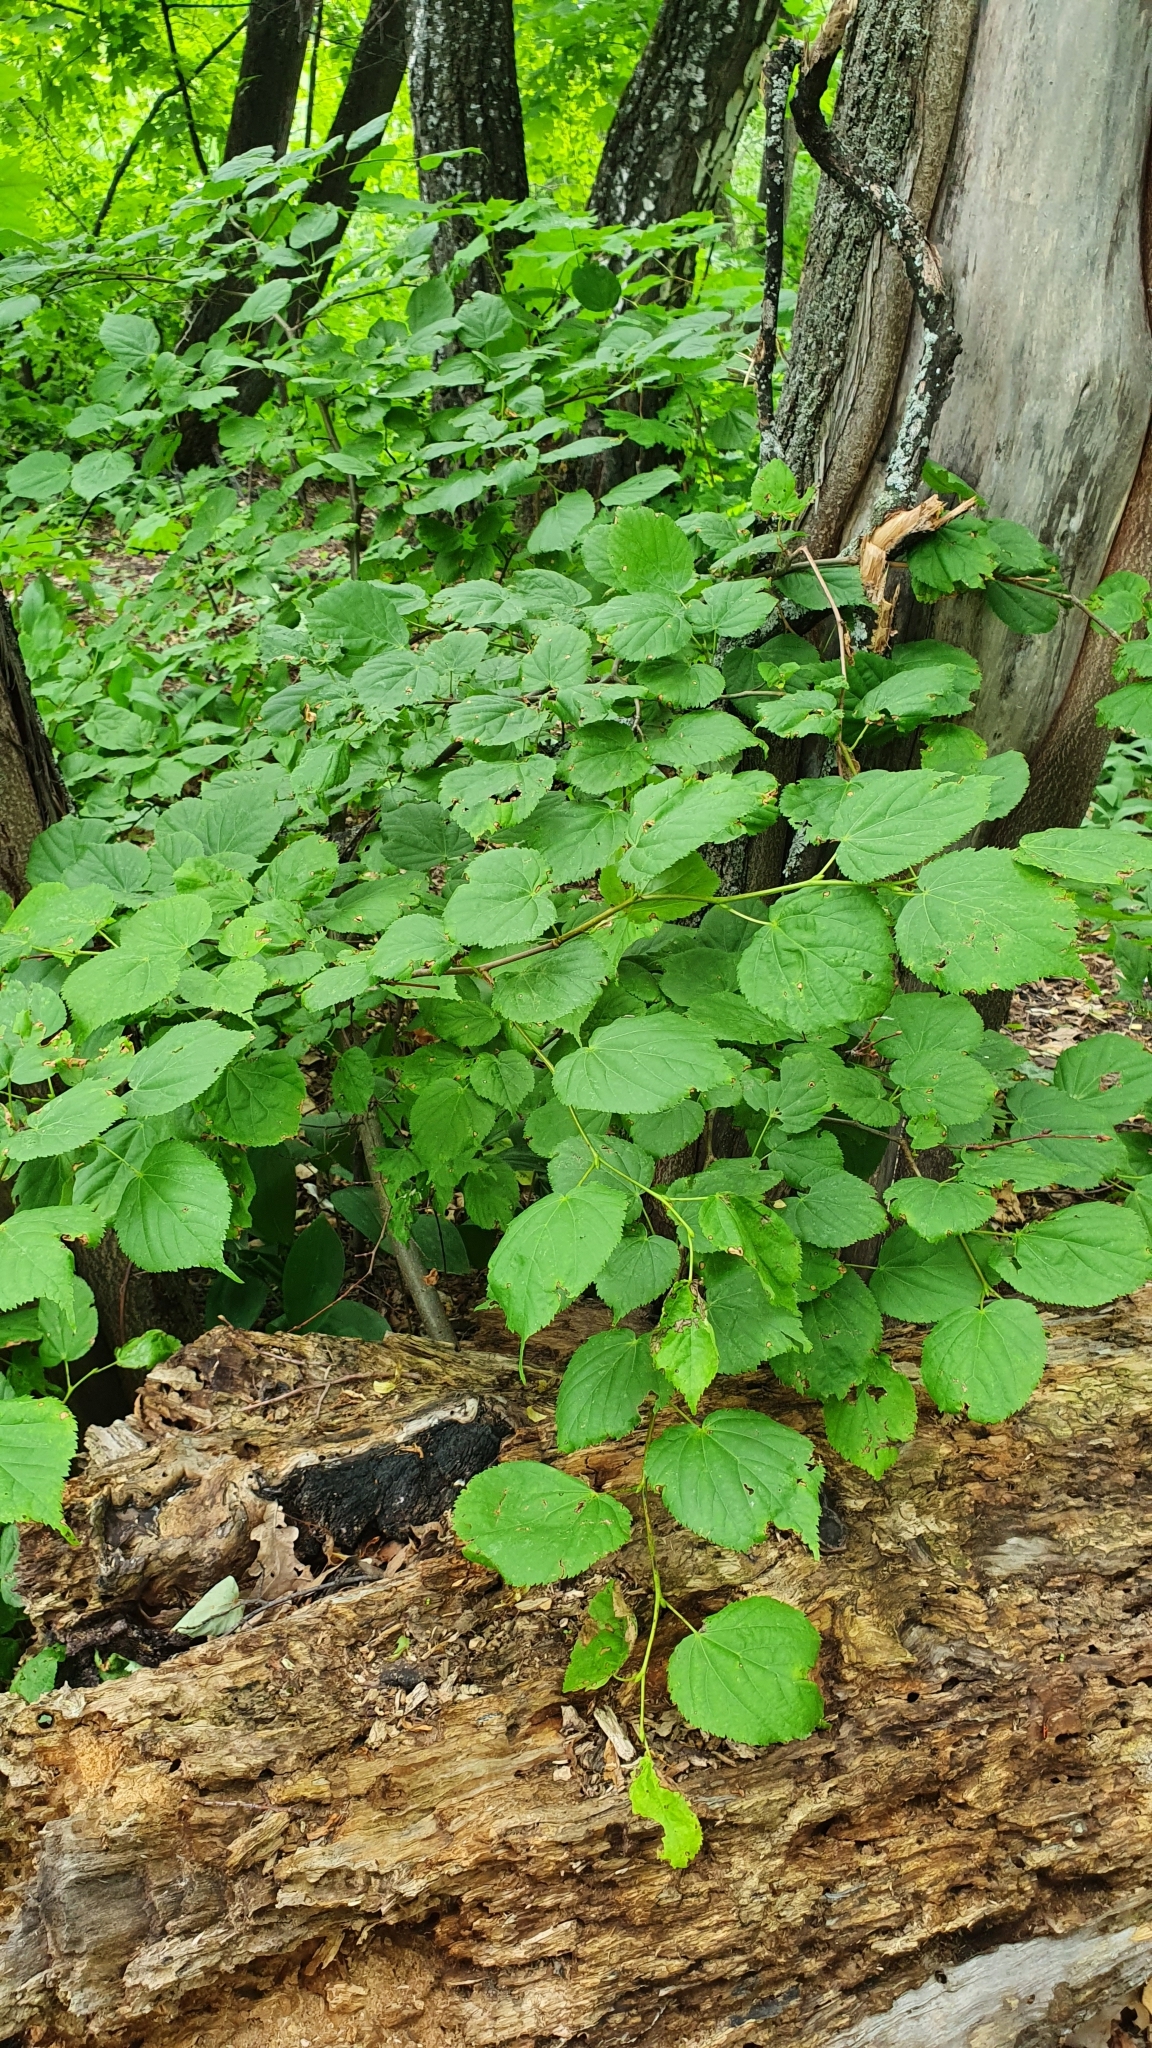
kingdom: Plantae
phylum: Tracheophyta
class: Magnoliopsida
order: Malvales
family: Malvaceae
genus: Tilia
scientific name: Tilia cordata
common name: Small-leaved lime
